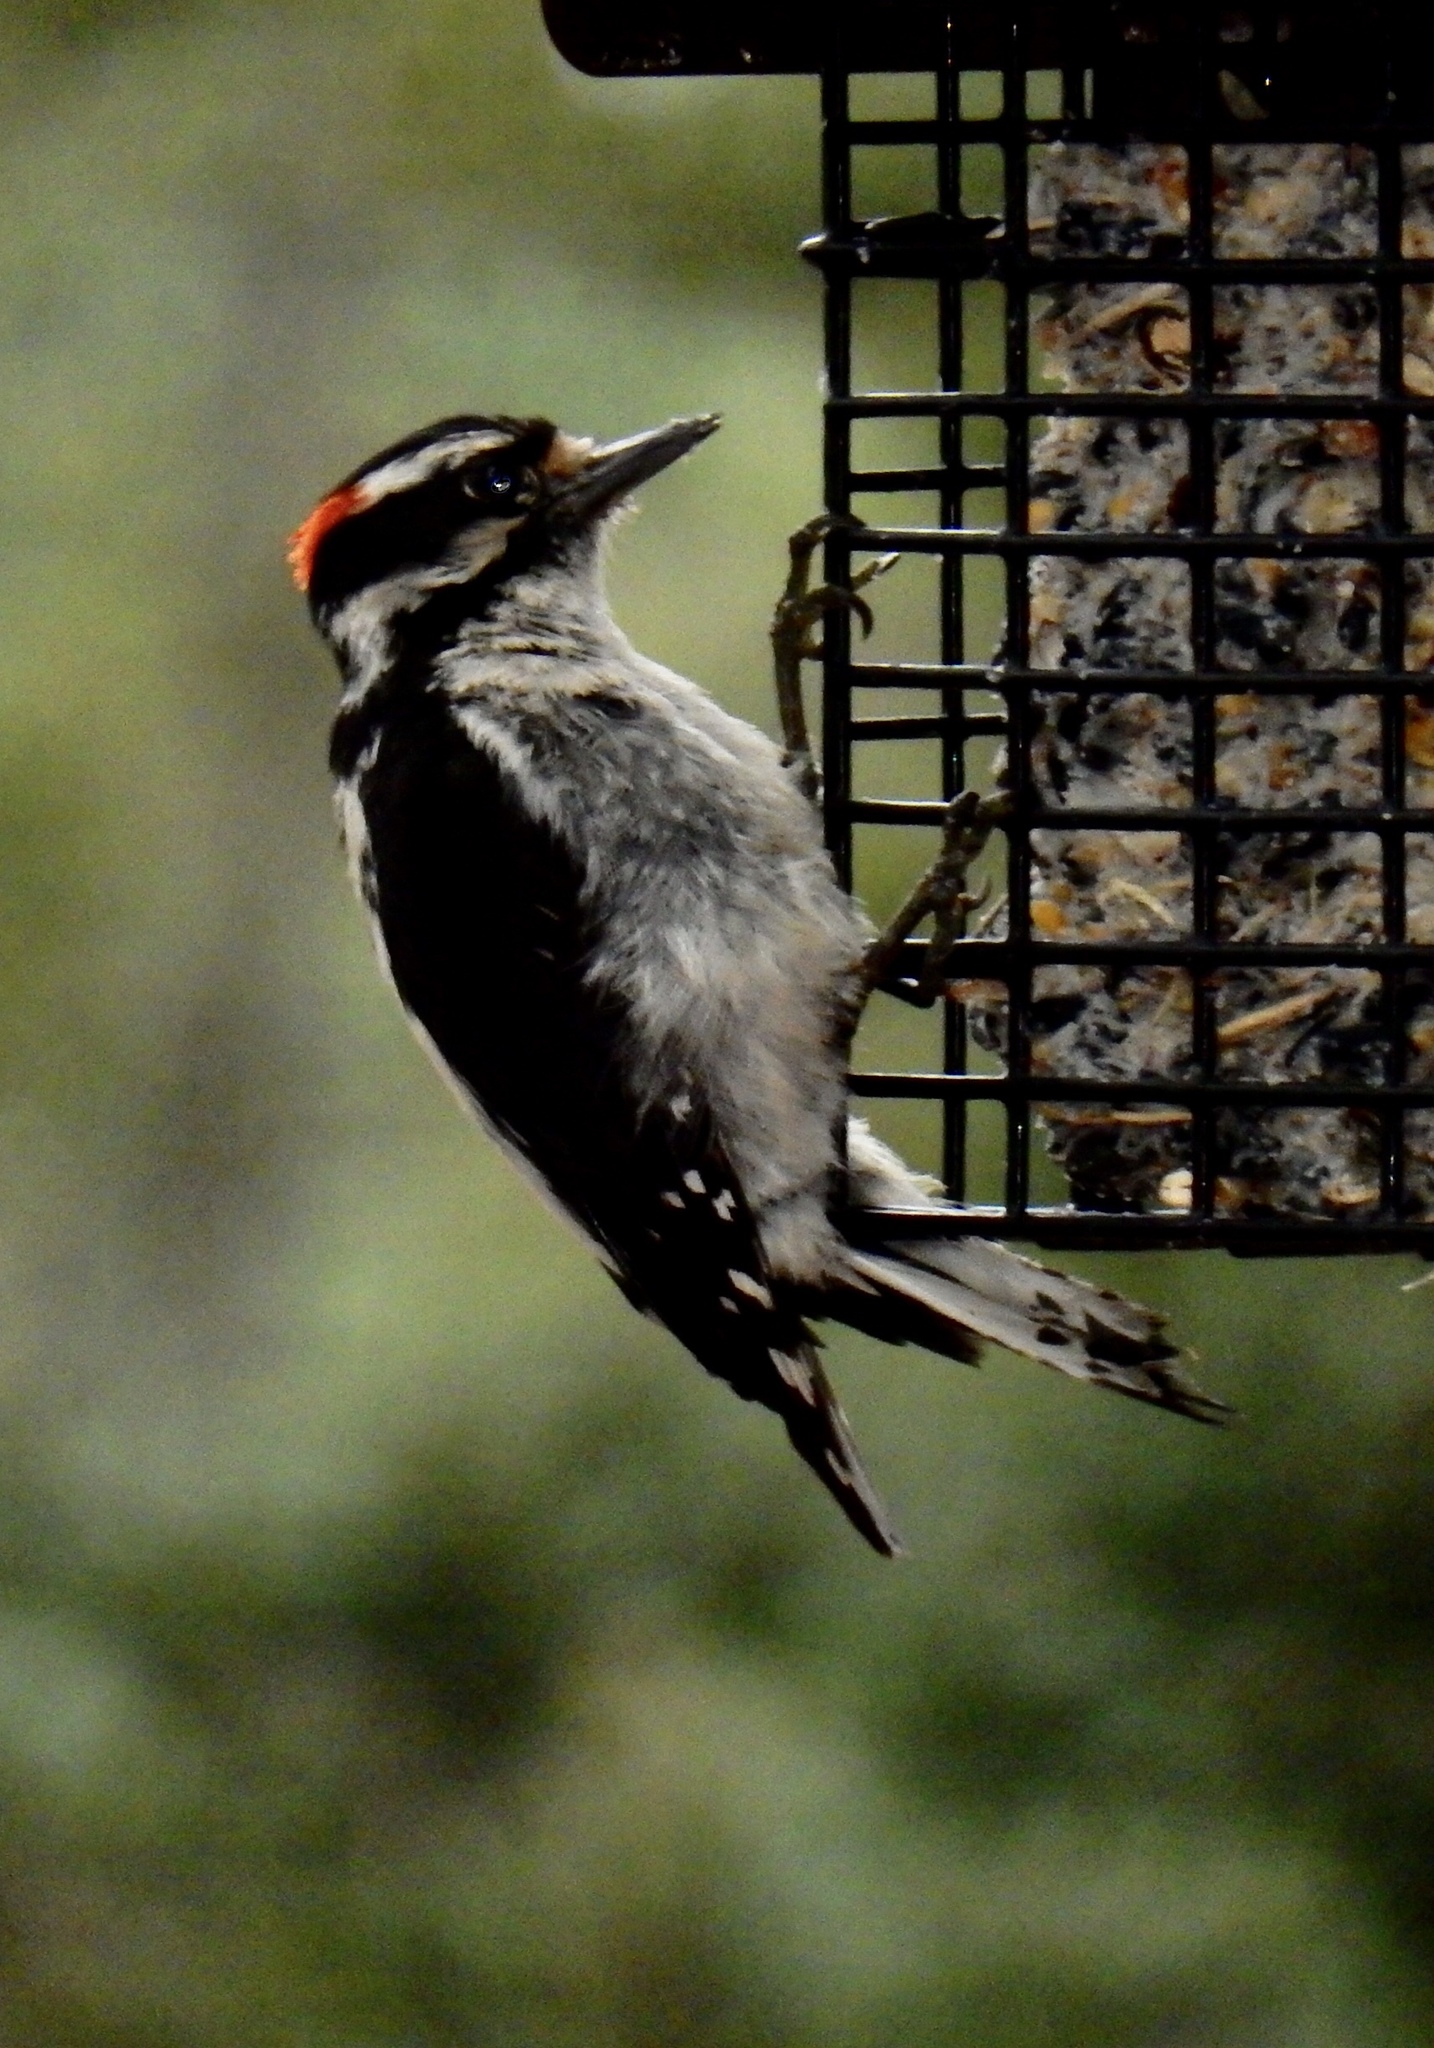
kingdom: Animalia
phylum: Chordata
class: Aves
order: Piciformes
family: Picidae
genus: Dryobates
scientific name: Dryobates pubescens
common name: Downy woodpecker
